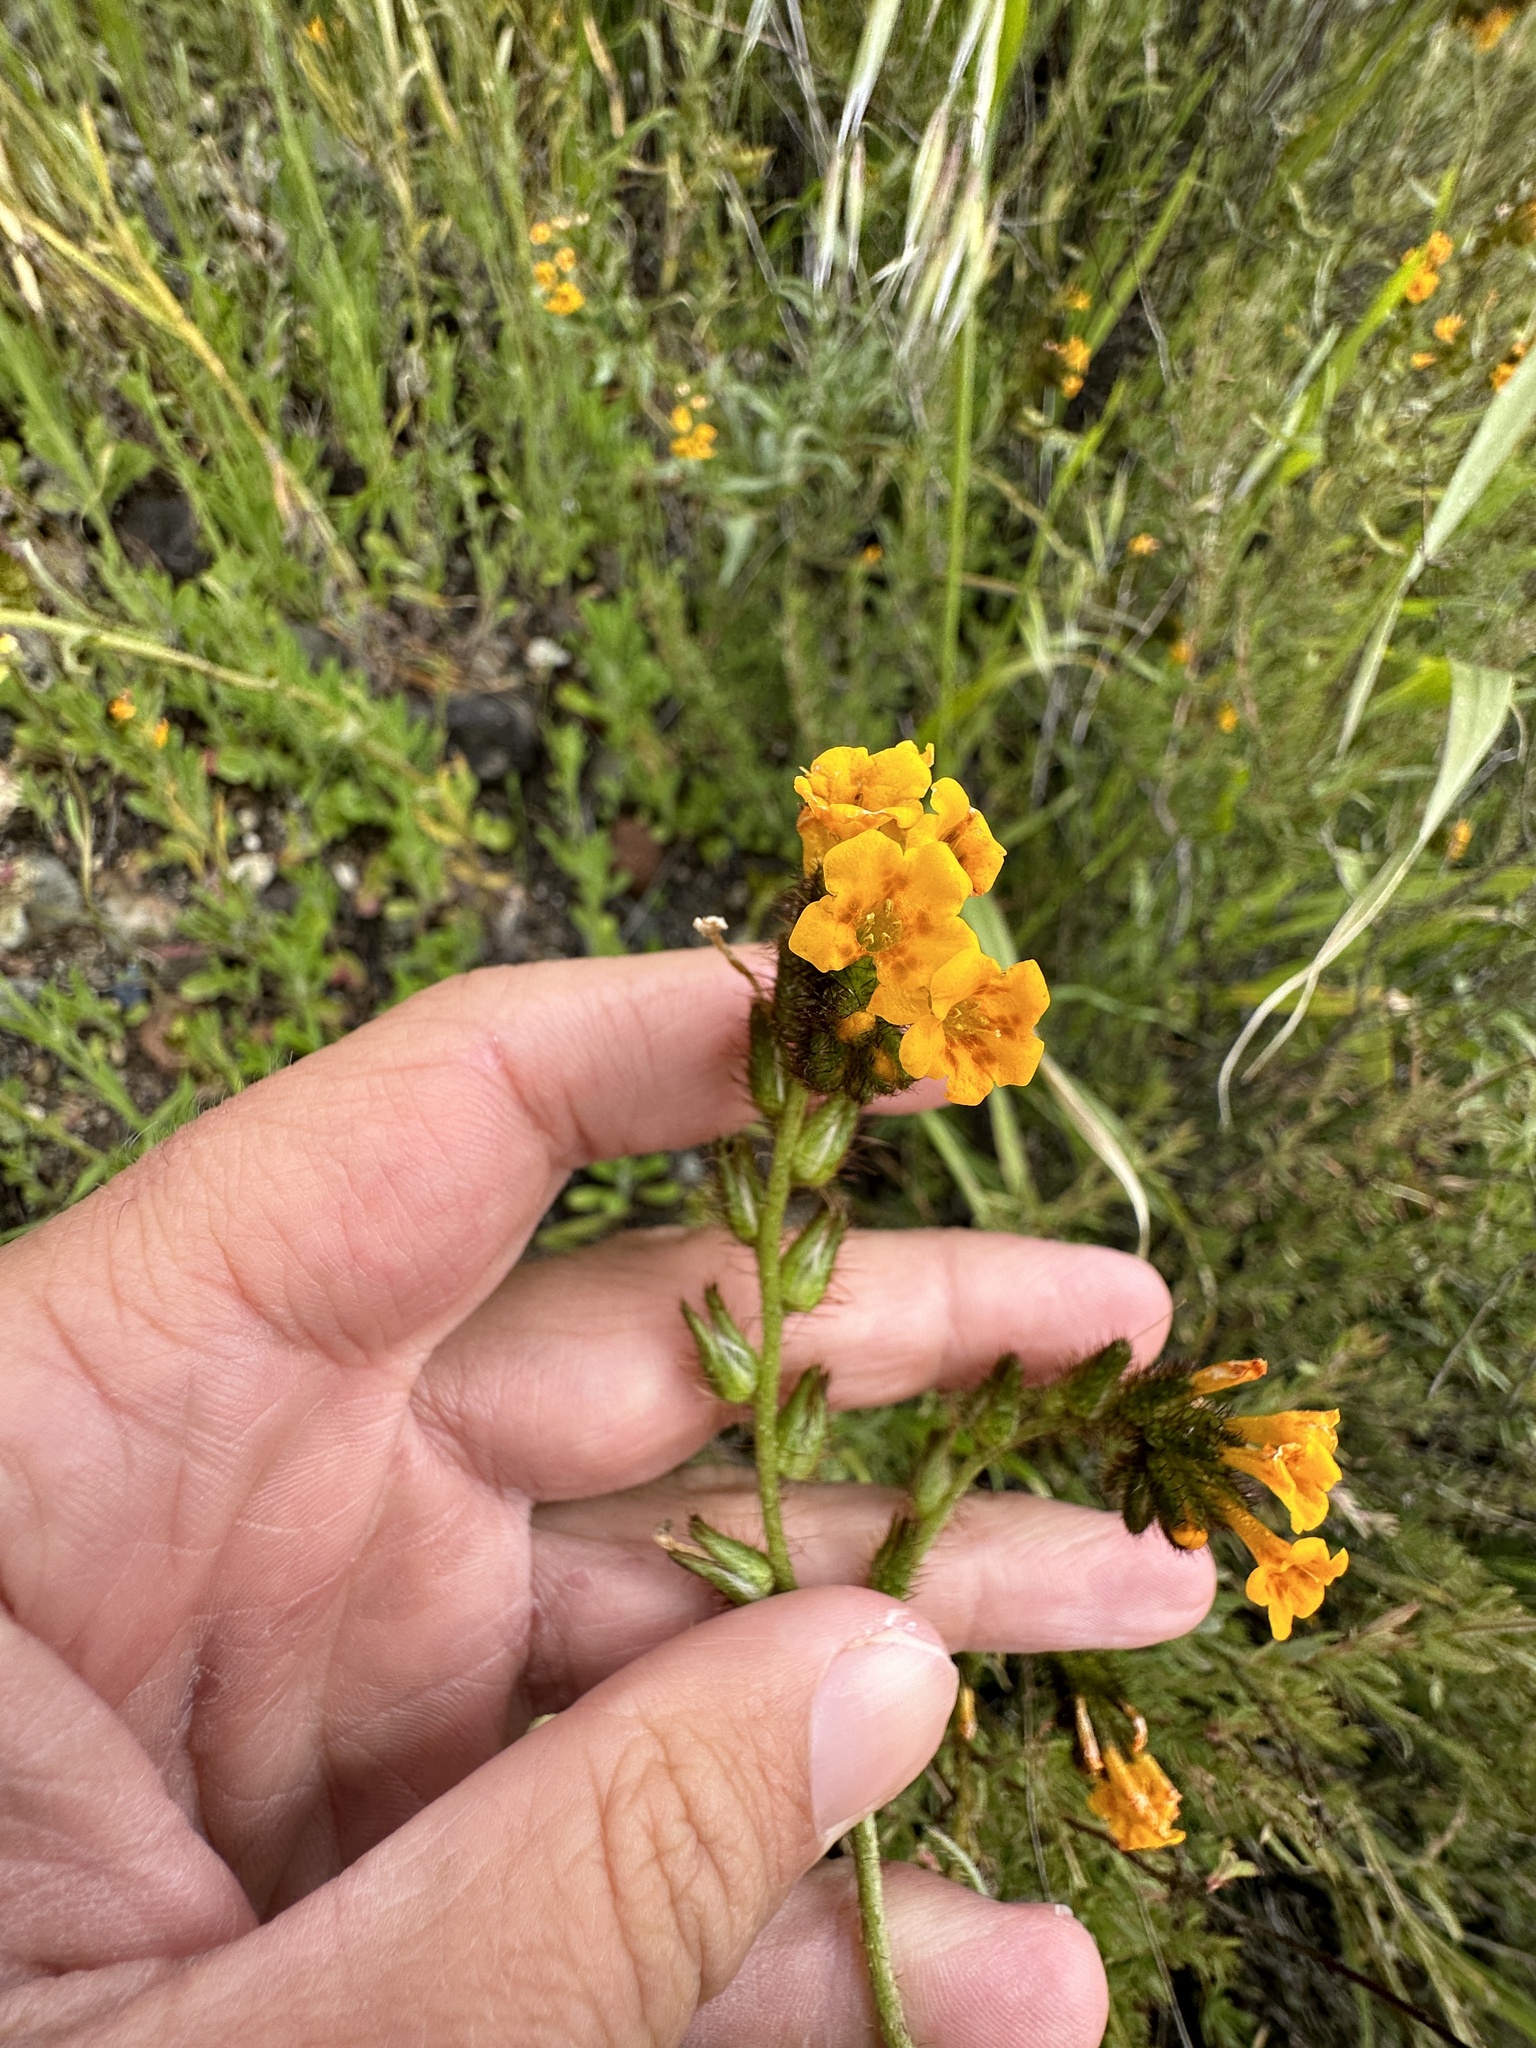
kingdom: Plantae
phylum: Tracheophyta
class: Magnoliopsida
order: Boraginales
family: Boraginaceae
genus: Amsinckia
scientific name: Amsinckia eastwoodiae
